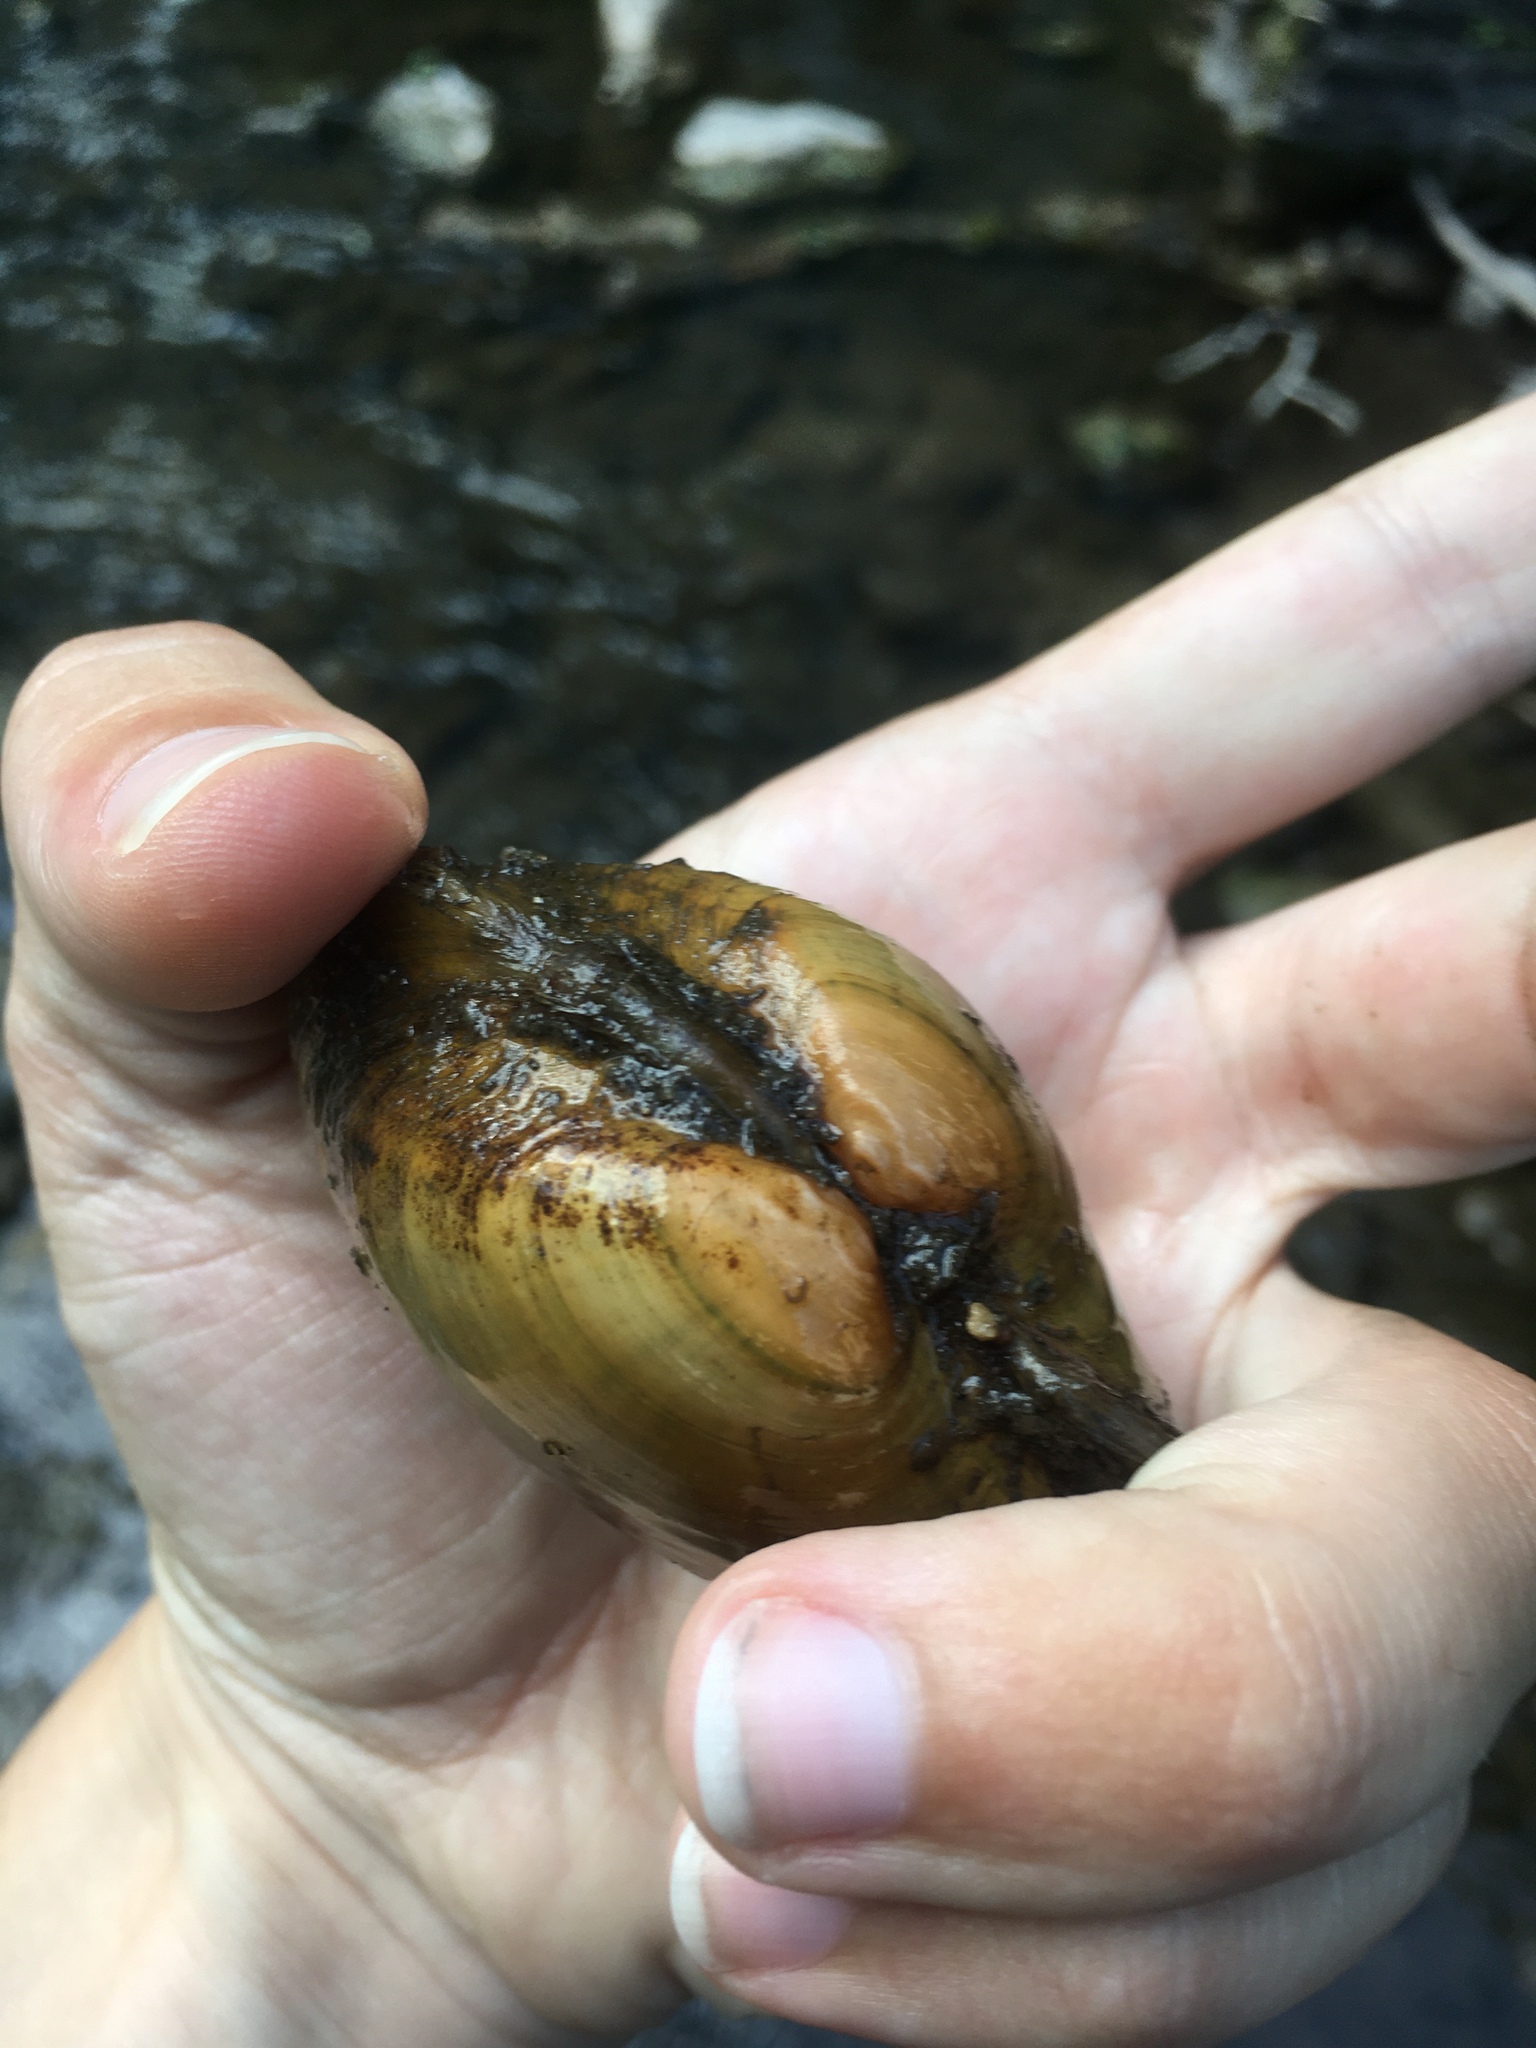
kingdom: Animalia
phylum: Mollusca
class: Bivalvia
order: Unionida
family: Unionidae
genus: Lampsilis
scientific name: Lampsilis cardium
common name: Plain pocketbook
